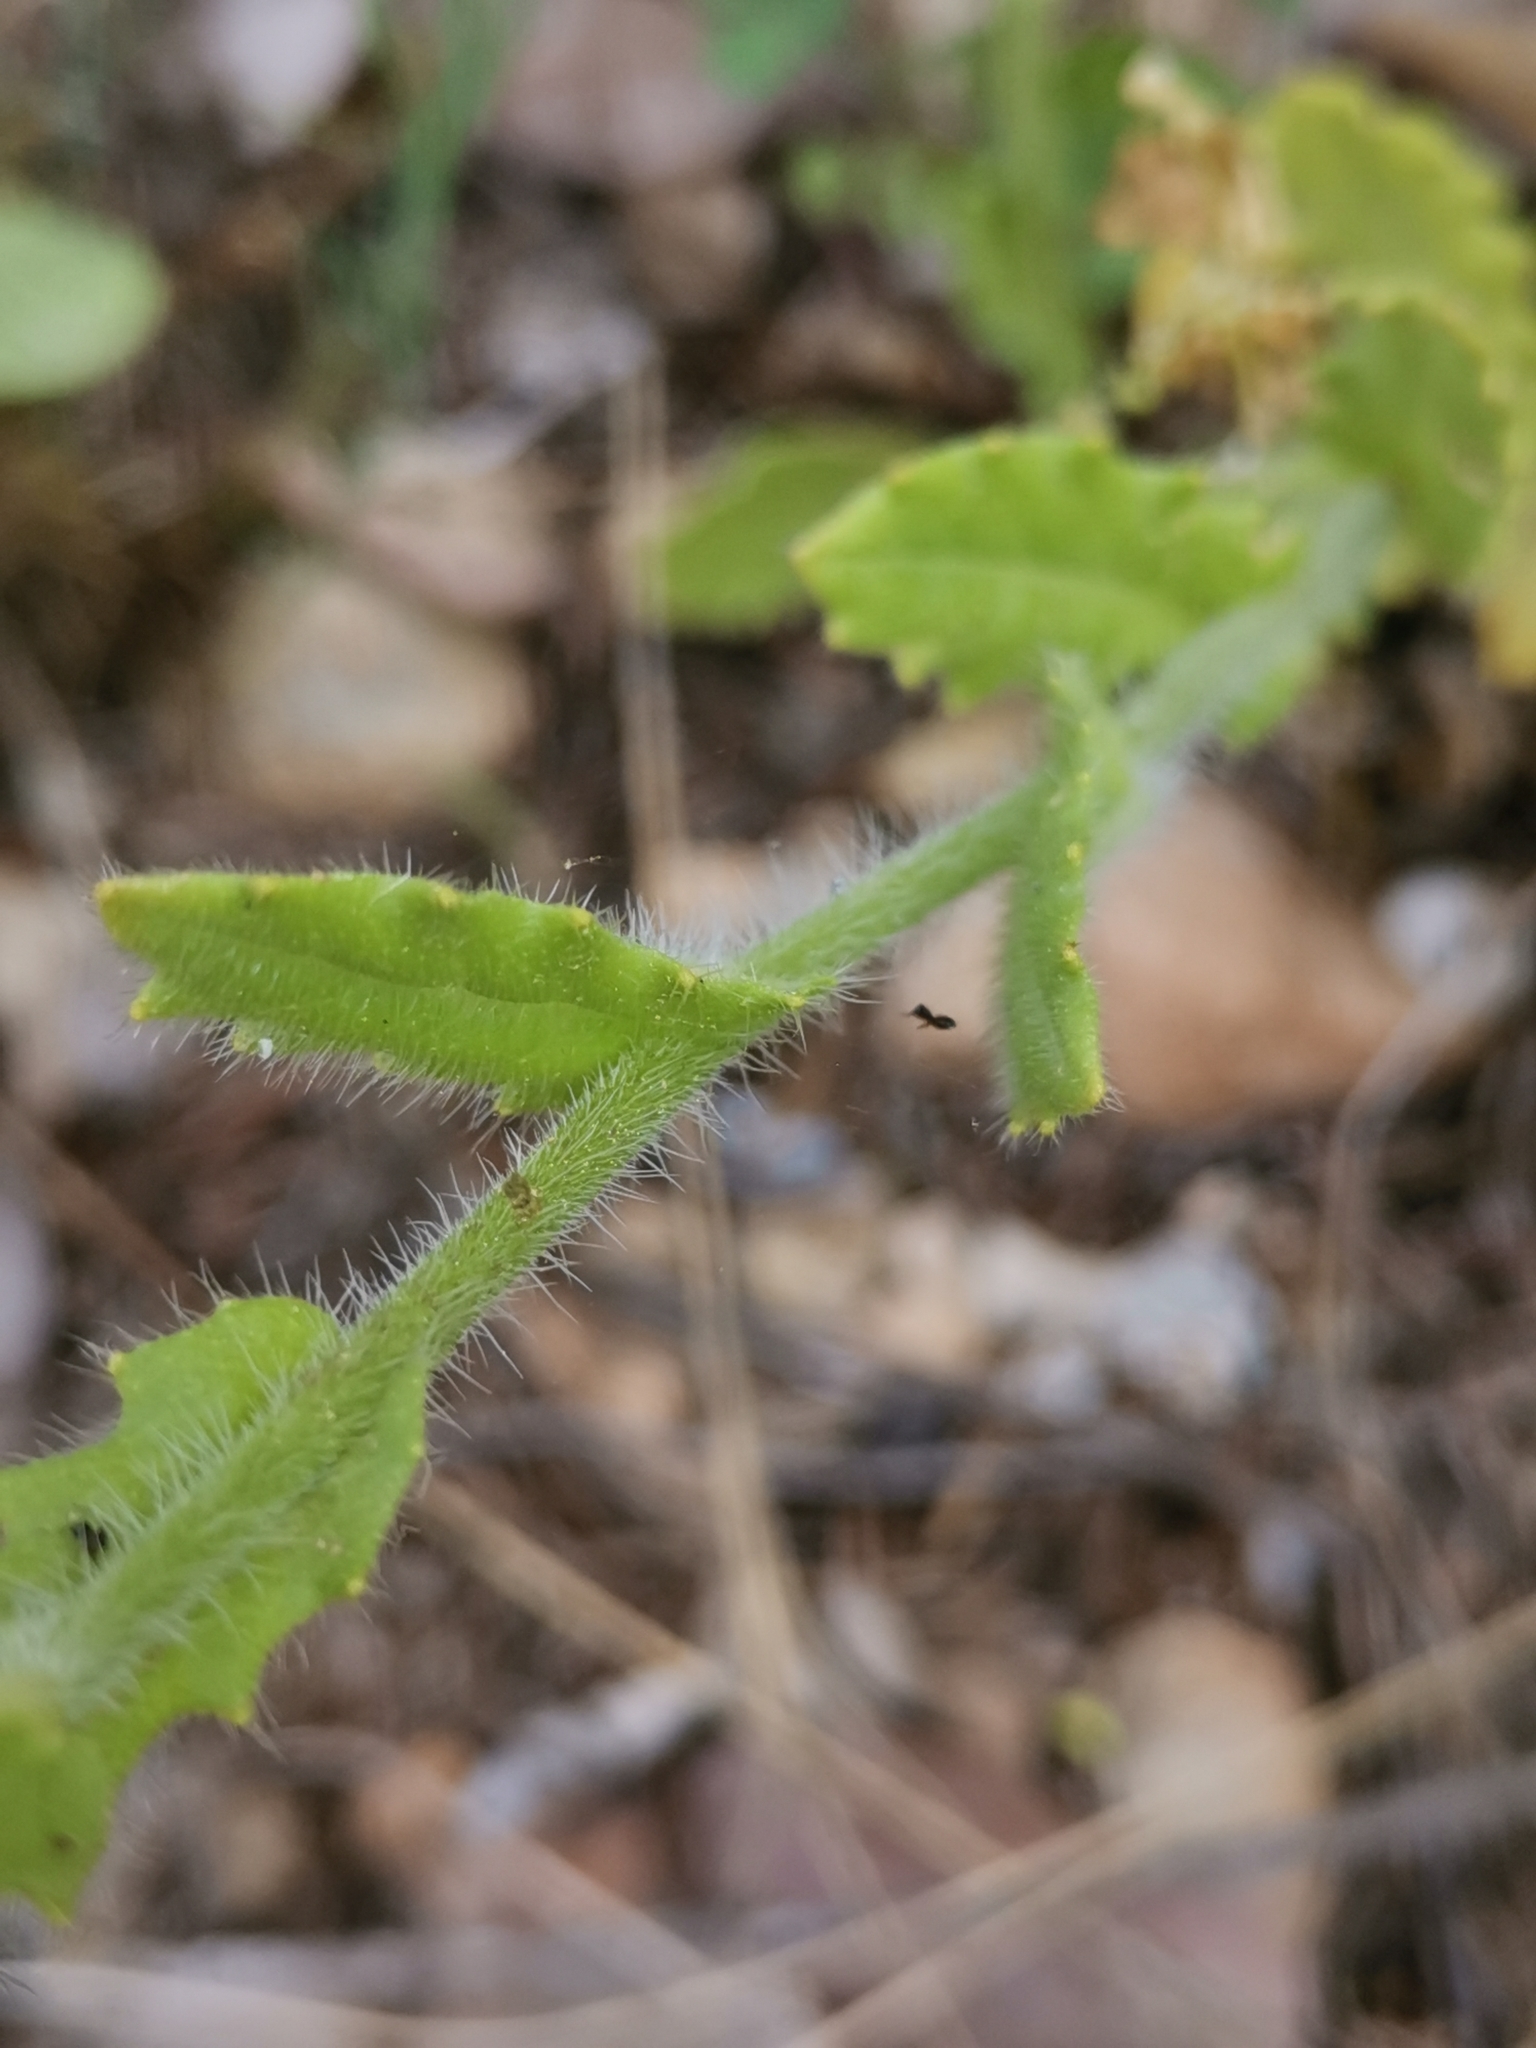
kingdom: Plantae
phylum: Tracheophyta
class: Magnoliopsida
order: Brassicales
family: Brassicaceae
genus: Biscutella
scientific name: Biscutella cichoriifolia
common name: Chicory-leaf buckler mustard
